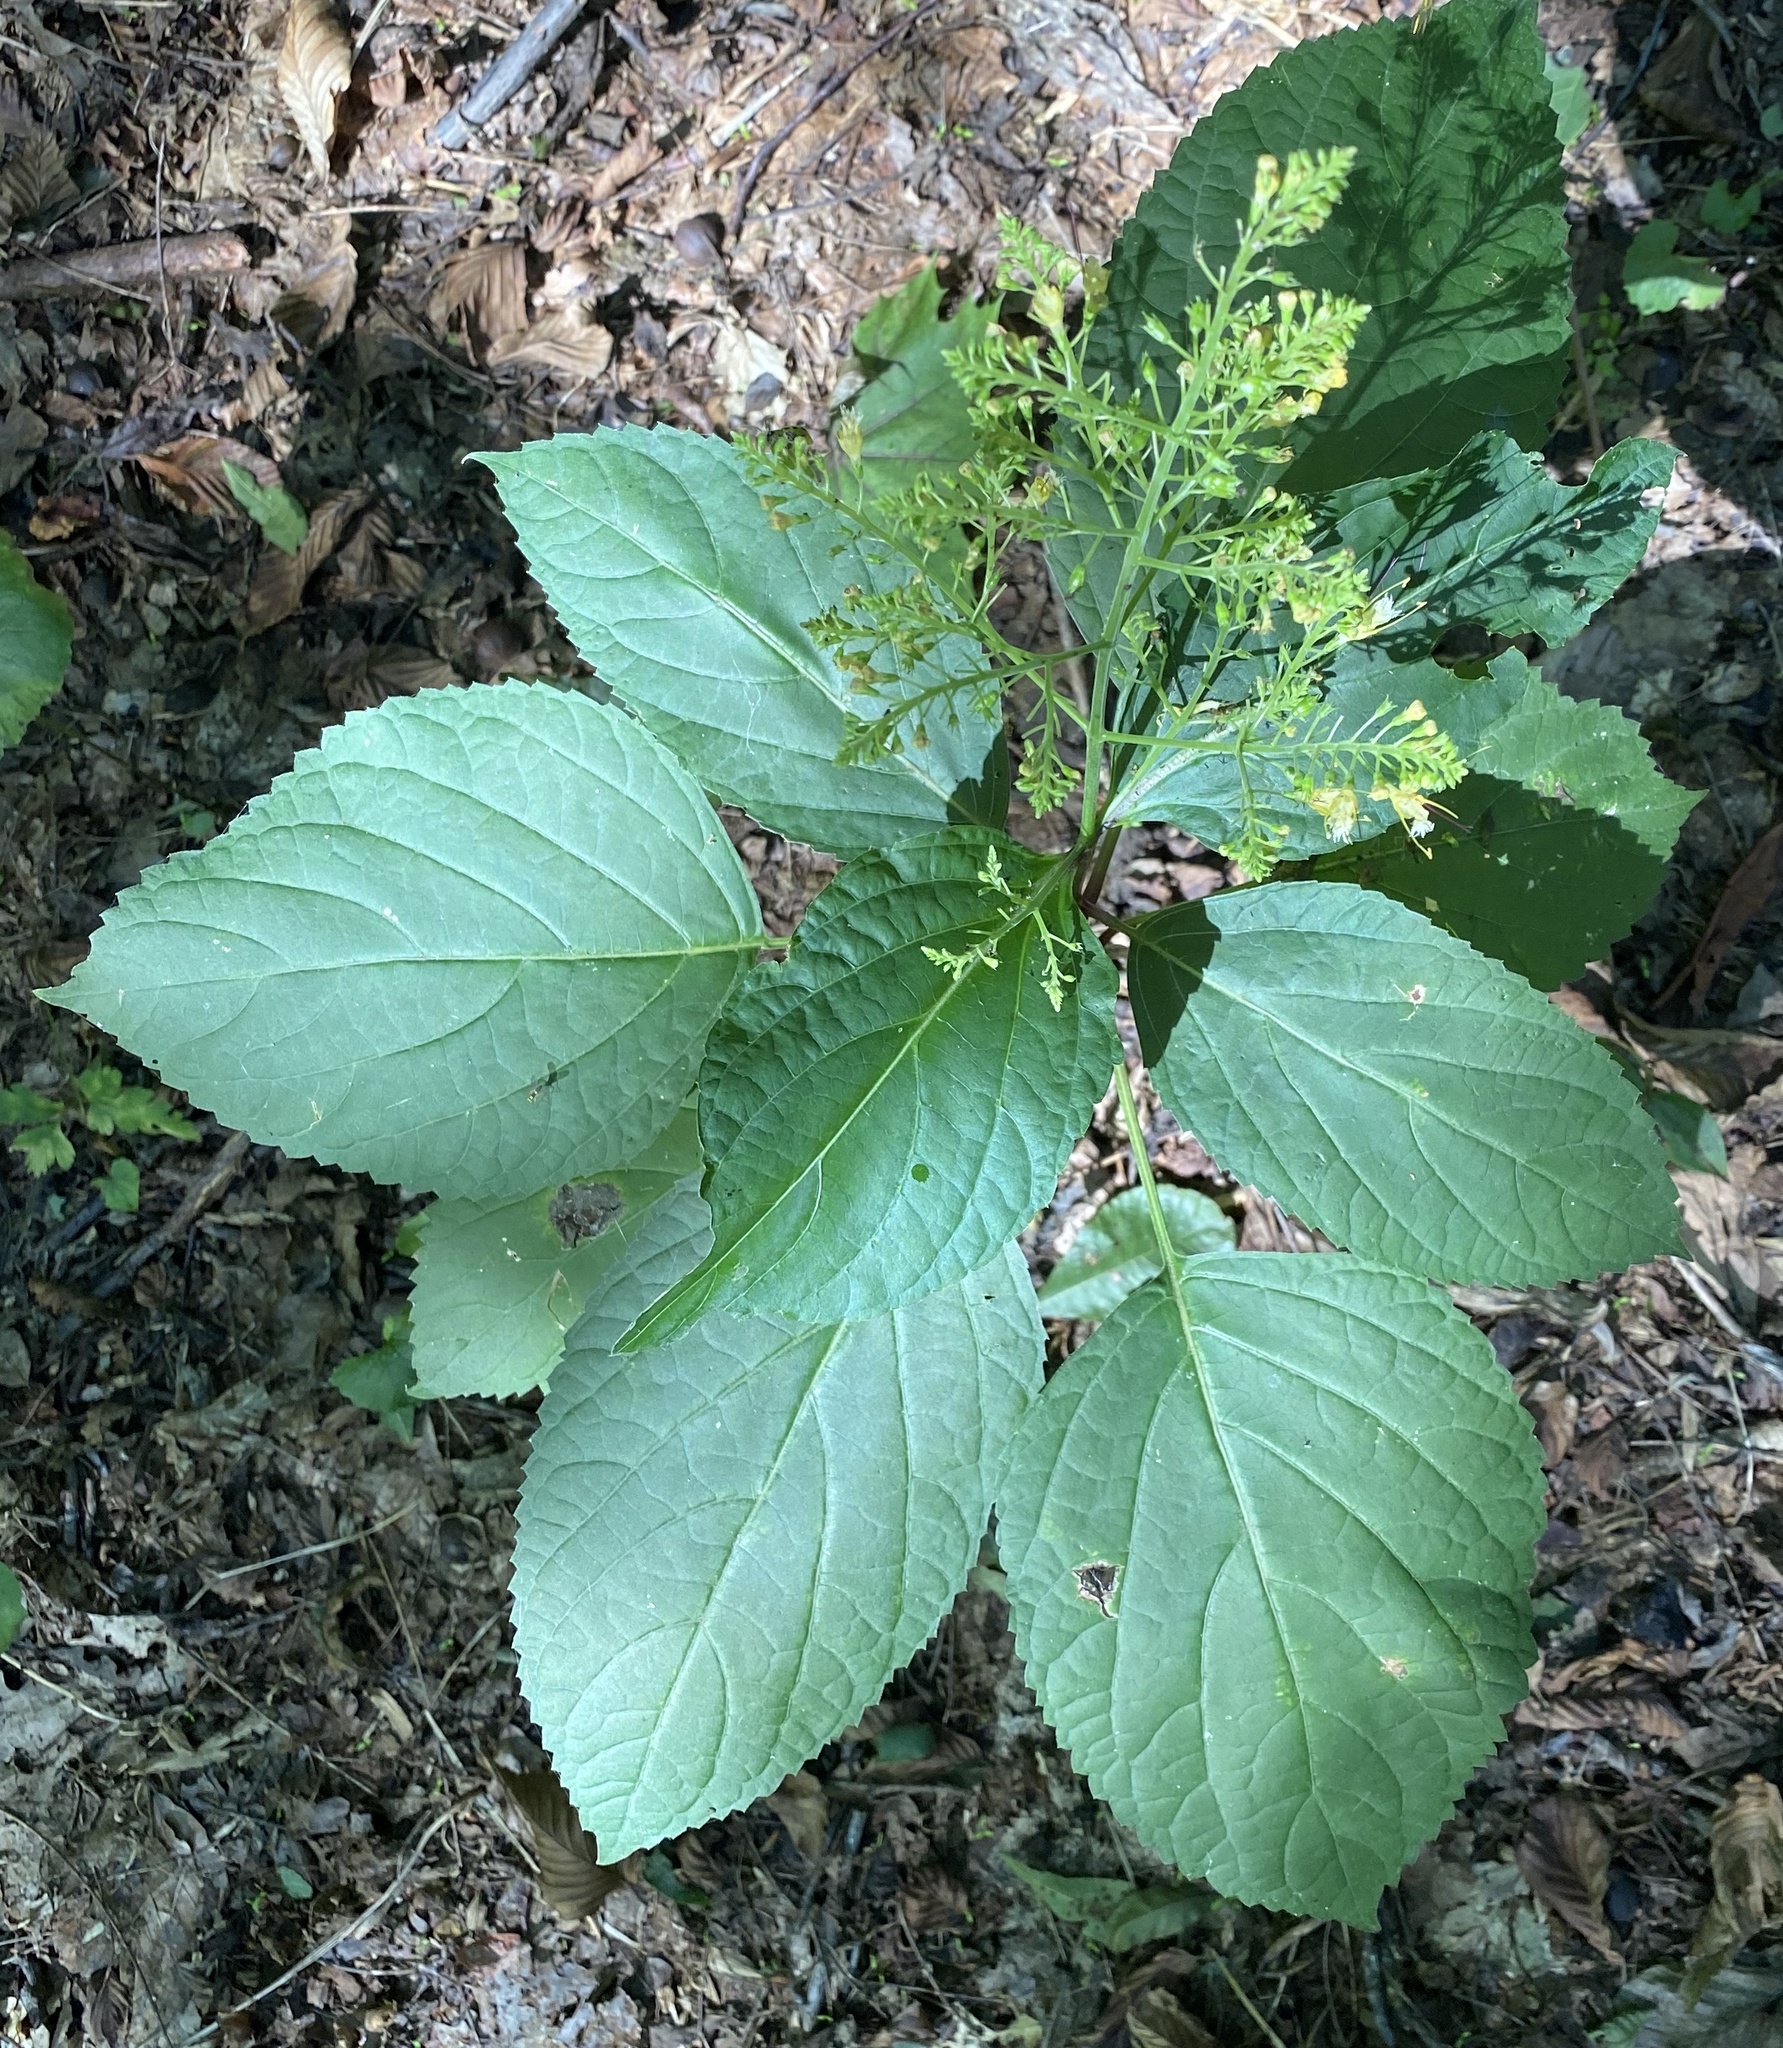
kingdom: Plantae
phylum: Tracheophyta
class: Magnoliopsida
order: Lamiales
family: Lamiaceae
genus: Collinsonia
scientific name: Collinsonia canadensis
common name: Northern horsebalm
